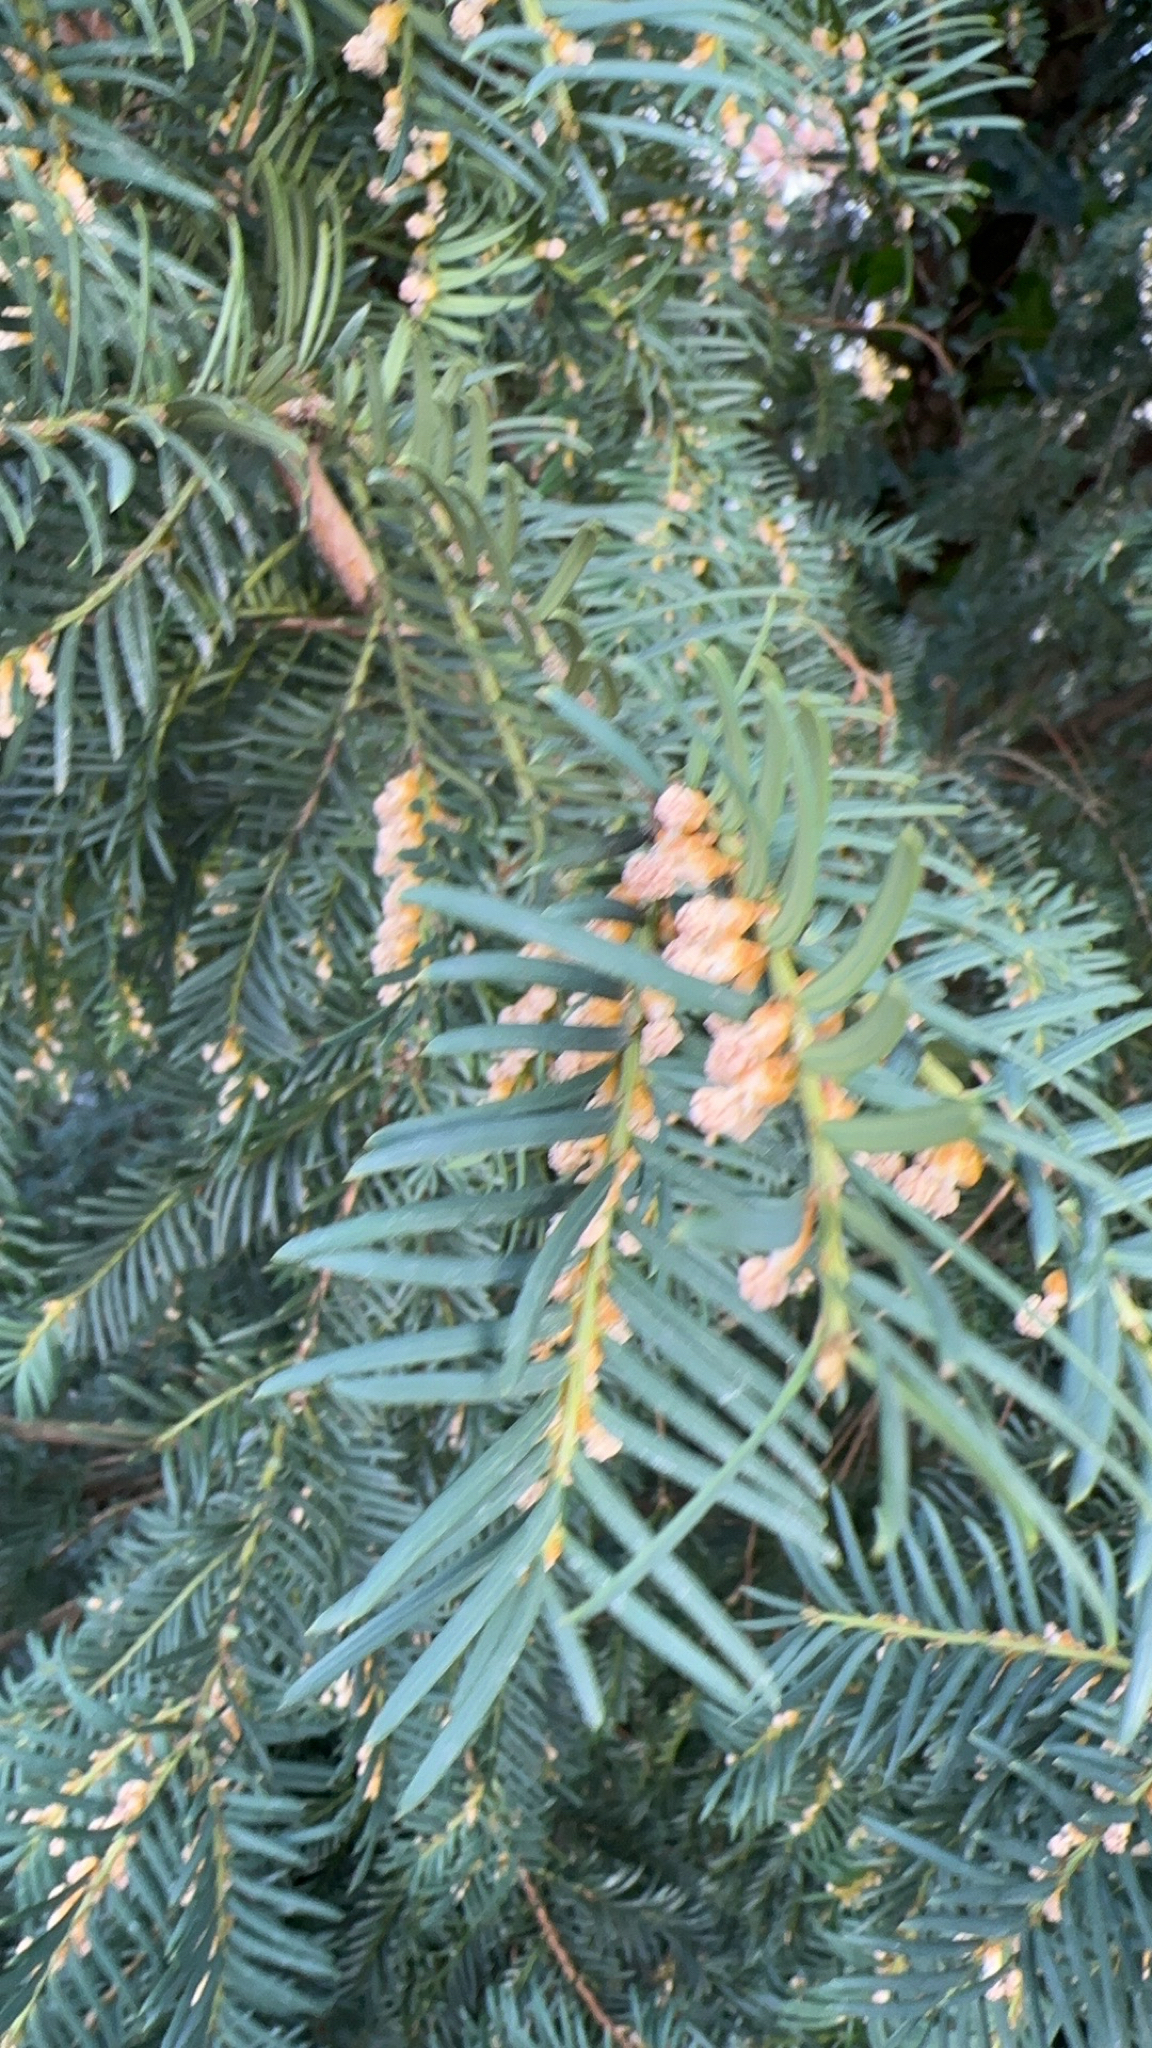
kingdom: Plantae
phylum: Tracheophyta
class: Pinopsida
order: Pinales
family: Taxaceae
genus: Taxus
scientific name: Taxus baccata
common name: Yew
